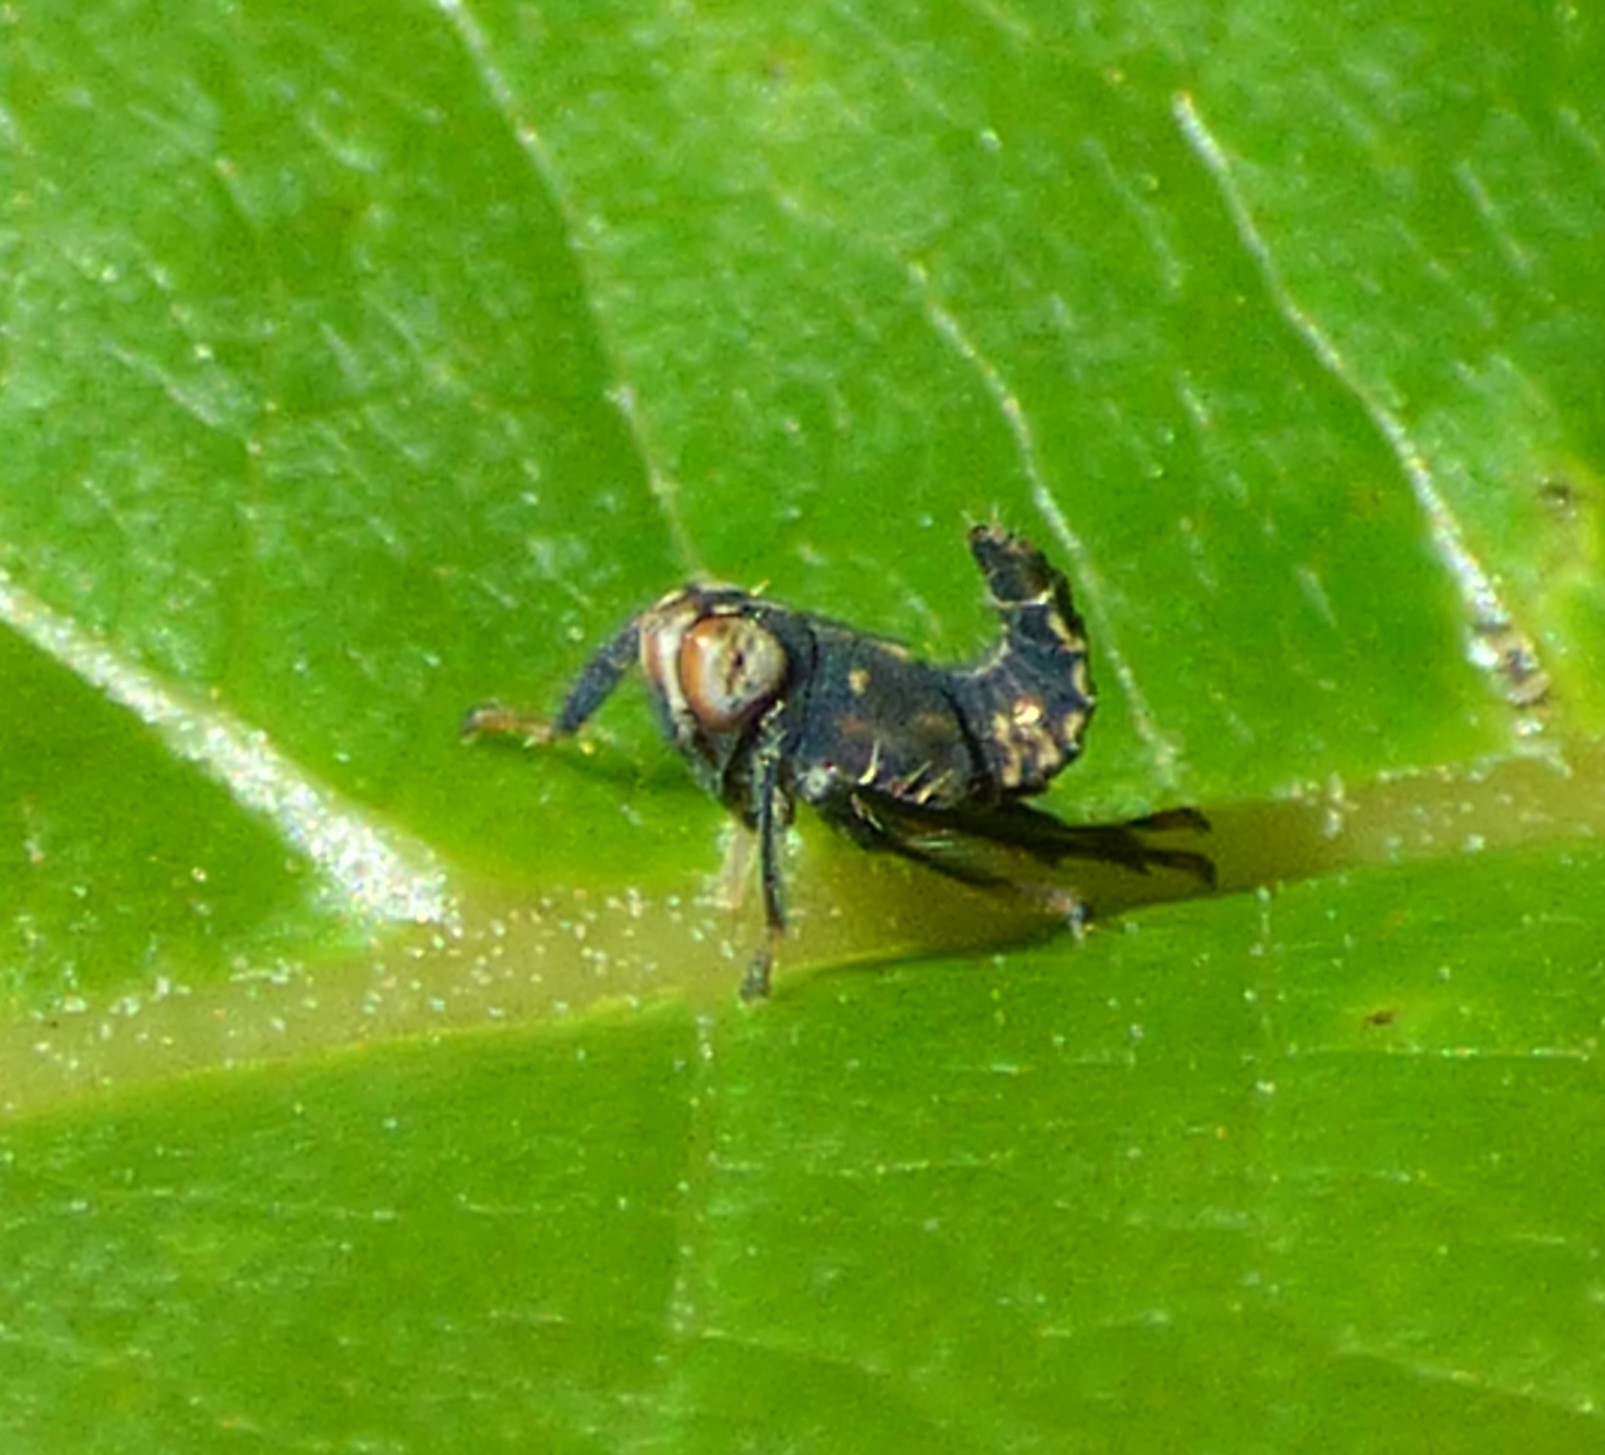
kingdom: Animalia
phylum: Arthropoda
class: Insecta
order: Hemiptera
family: Cicadellidae
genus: Jikradia
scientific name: Jikradia olitoria
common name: Coppery leafhopper
